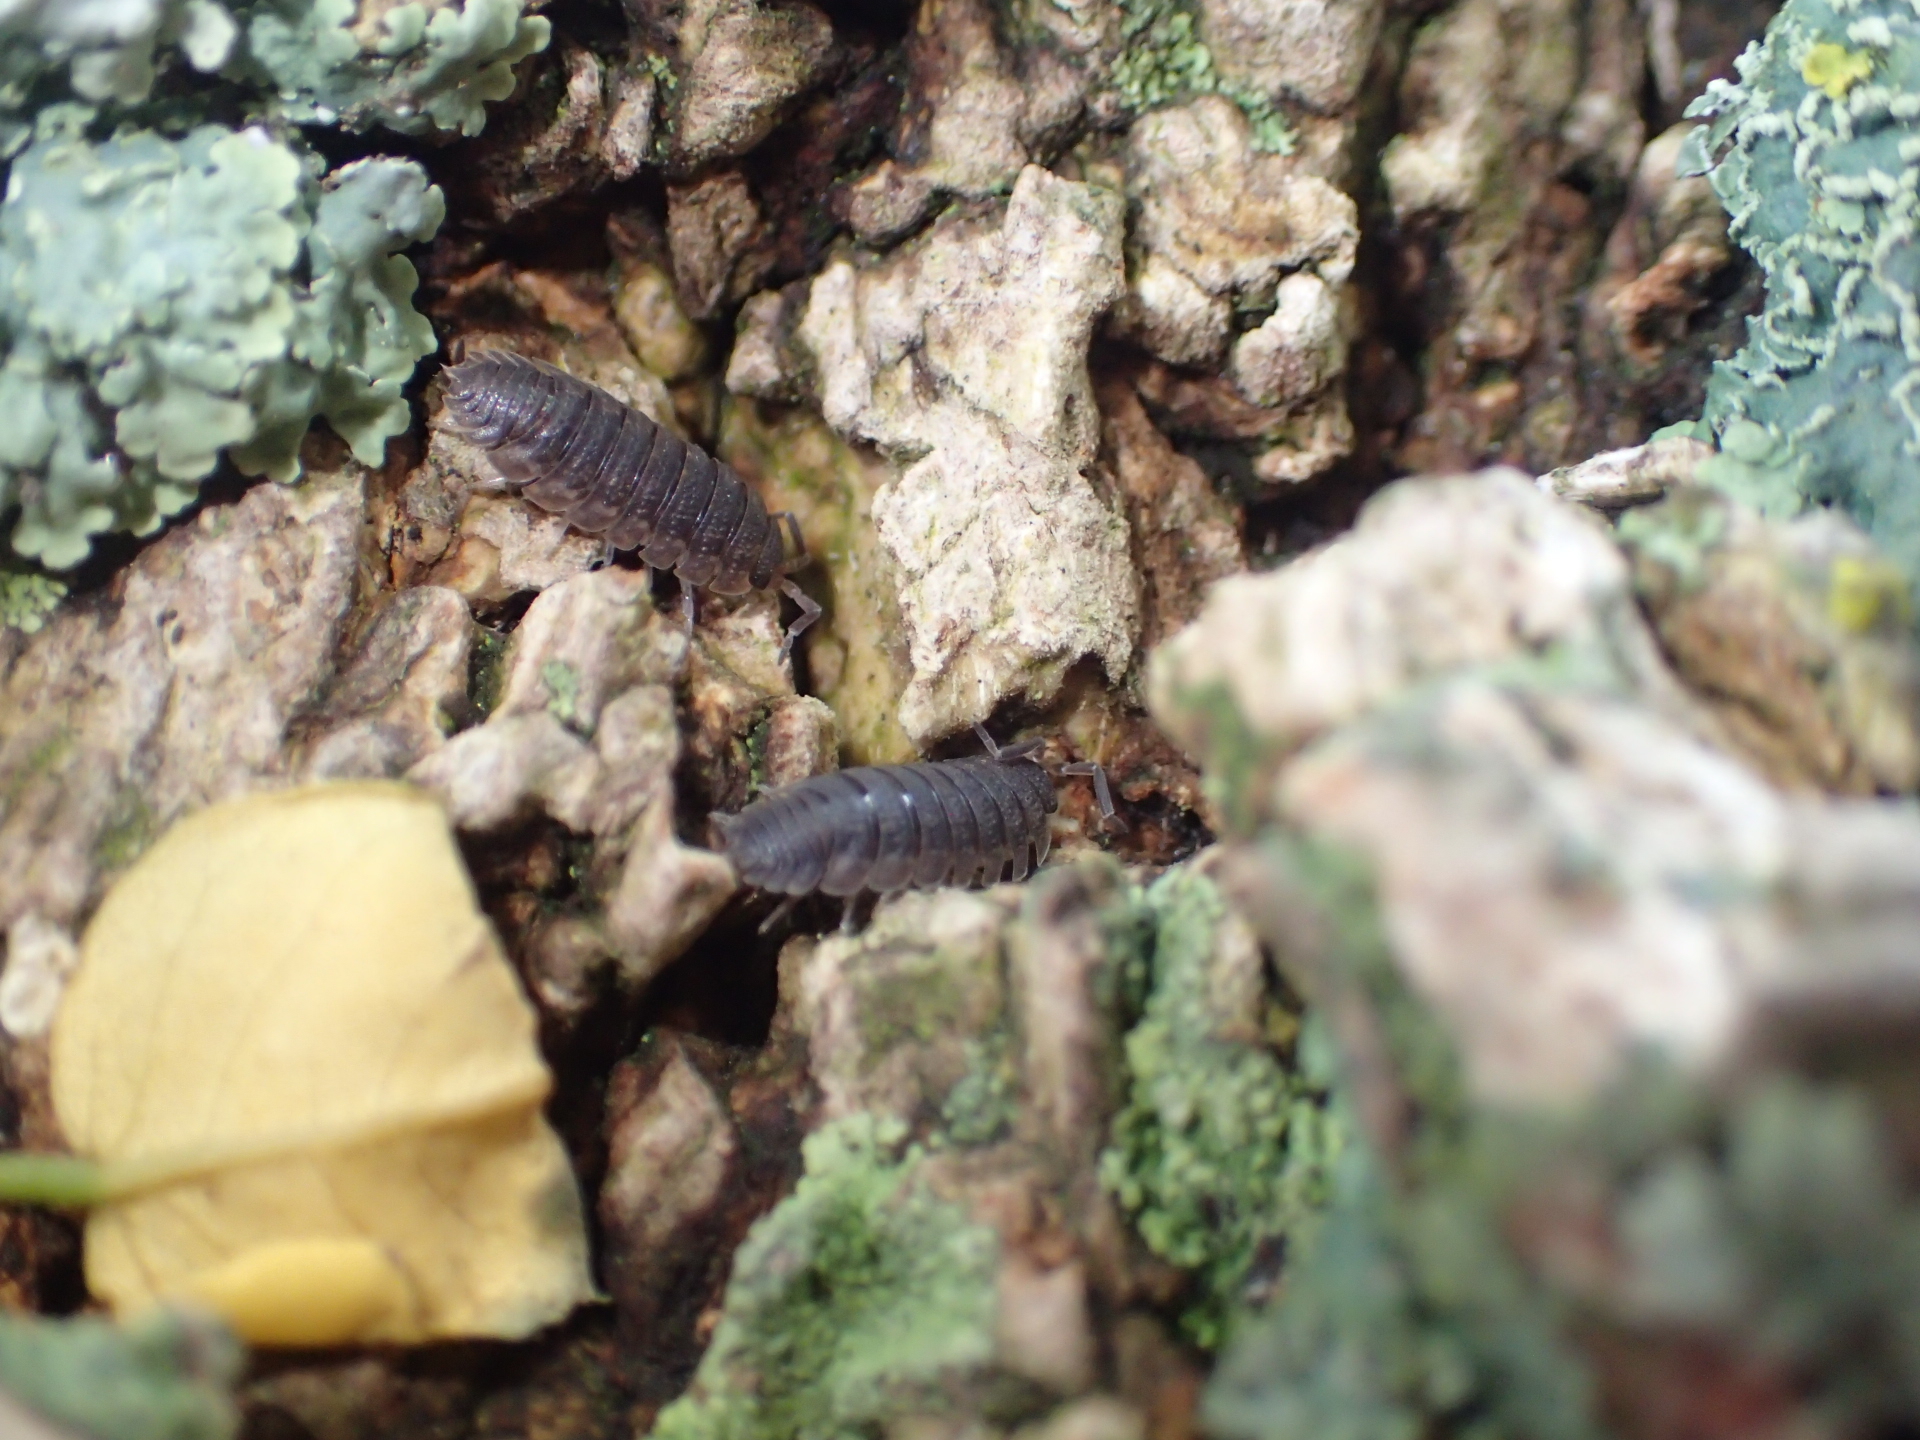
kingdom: Animalia
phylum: Arthropoda
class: Malacostraca
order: Isopoda
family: Porcellionidae
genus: Porcellio
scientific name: Porcellio scaber
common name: Common rough woodlouse
